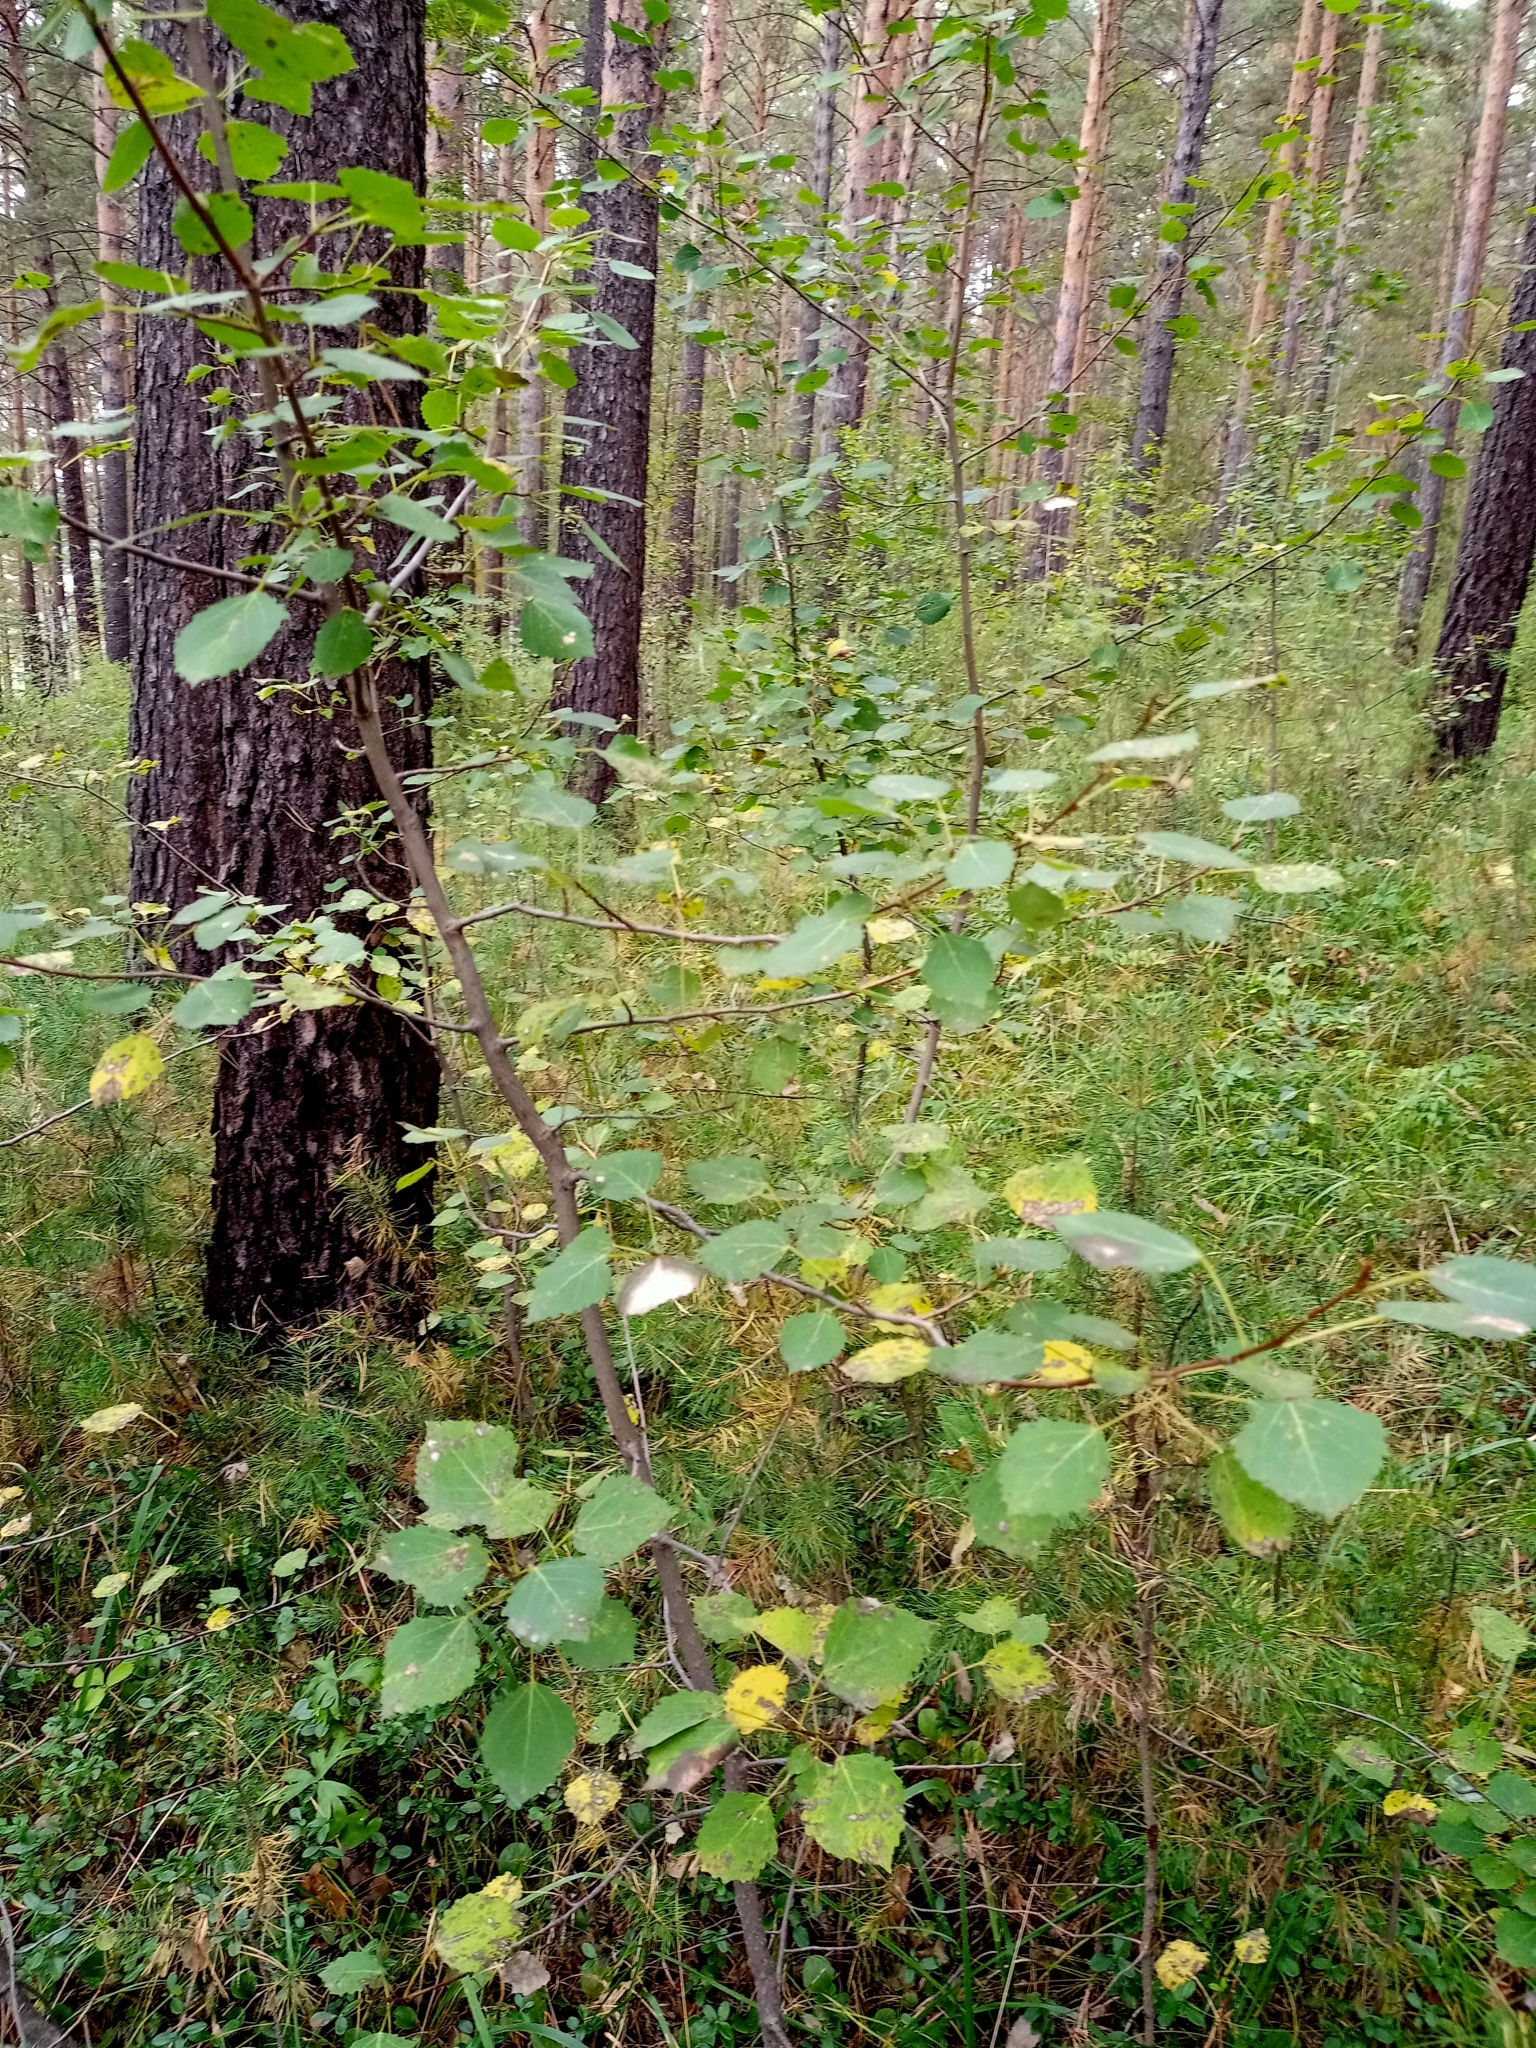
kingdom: Plantae
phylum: Tracheophyta
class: Magnoliopsida
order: Malpighiales
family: Salicaceae
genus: Populus
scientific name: Populus tremula
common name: European aspen
